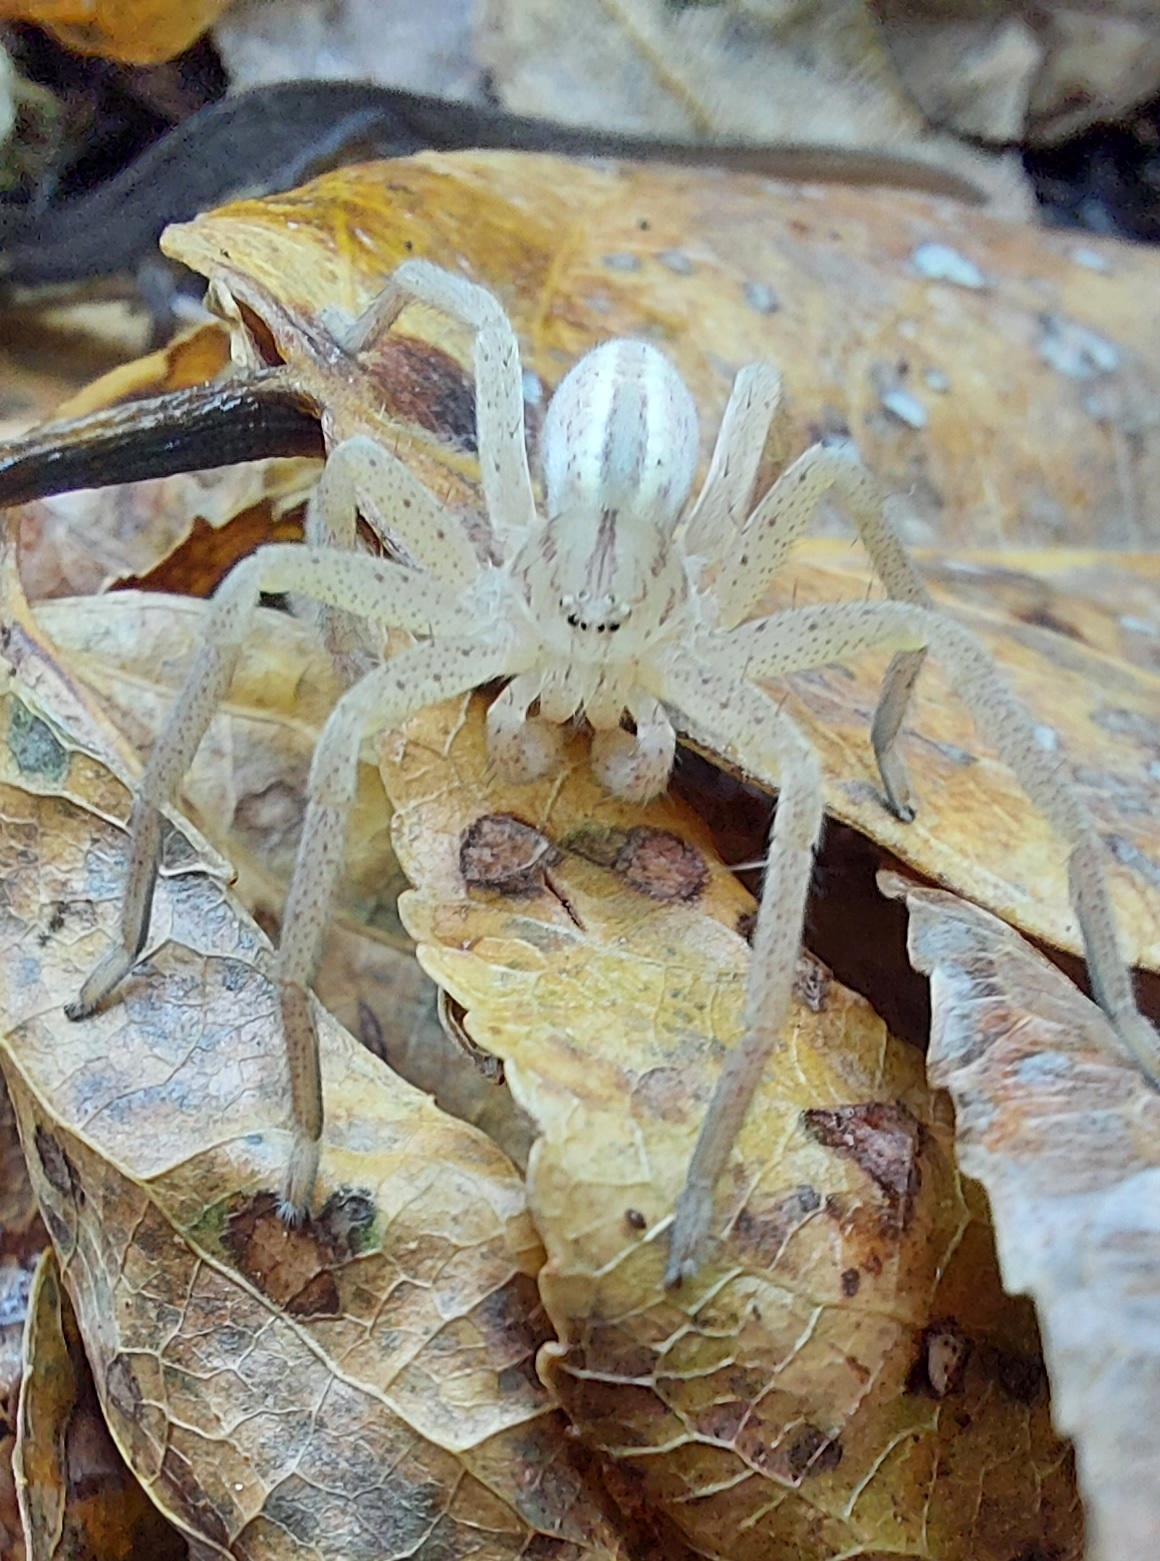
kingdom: Animalia
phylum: Arthropoda
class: Arachnida
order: Araneae
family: Sparassidae
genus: Micrommata
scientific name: Micrommata virescens
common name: Green spider
